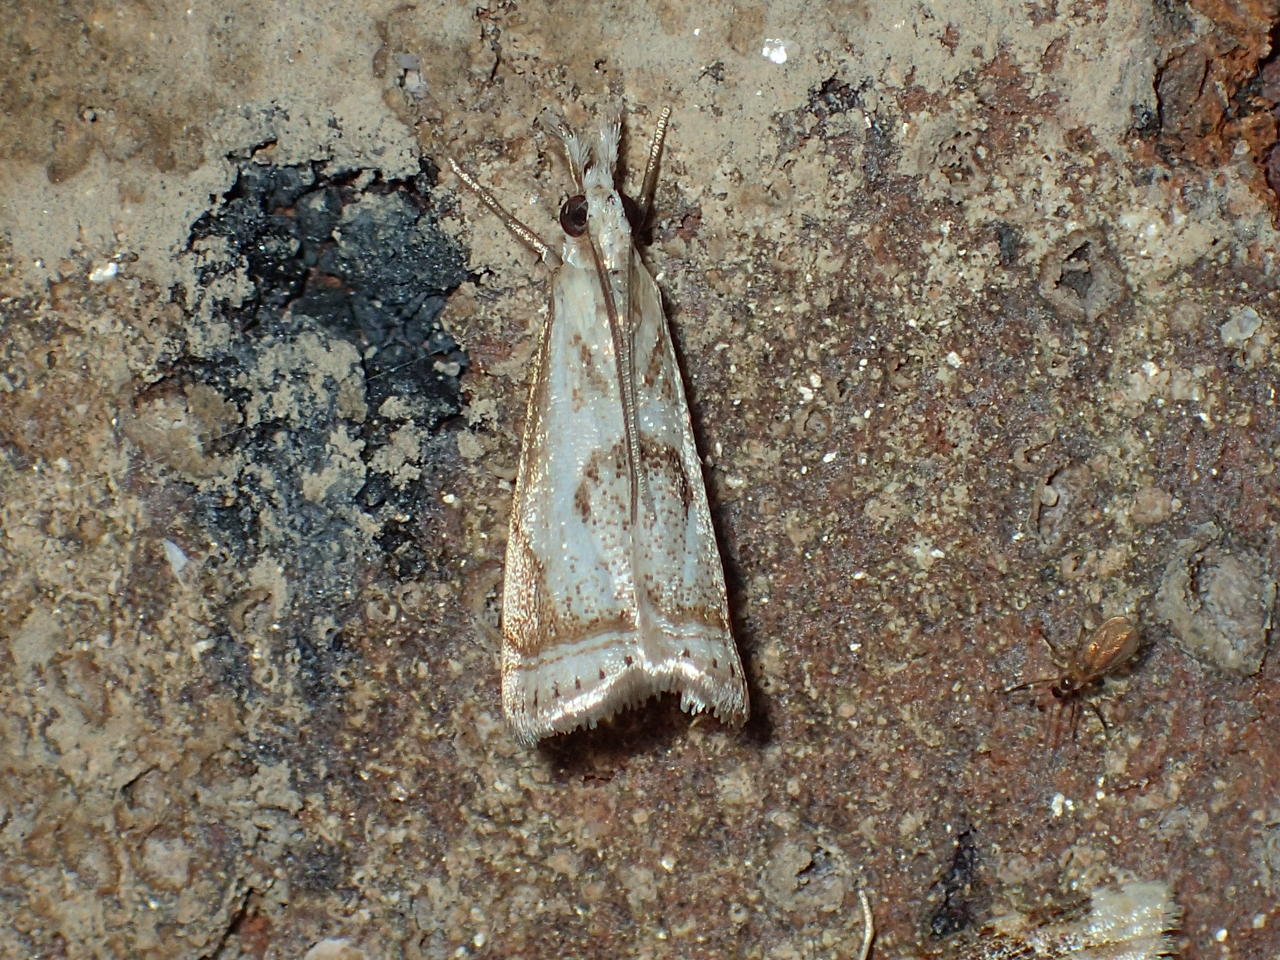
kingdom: Animalia
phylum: Arthropoda
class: Insecta
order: Lepidoptera
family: Crambidae
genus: Microcrambus
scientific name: Microcrambus elegans
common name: Elegant grass-veneer
